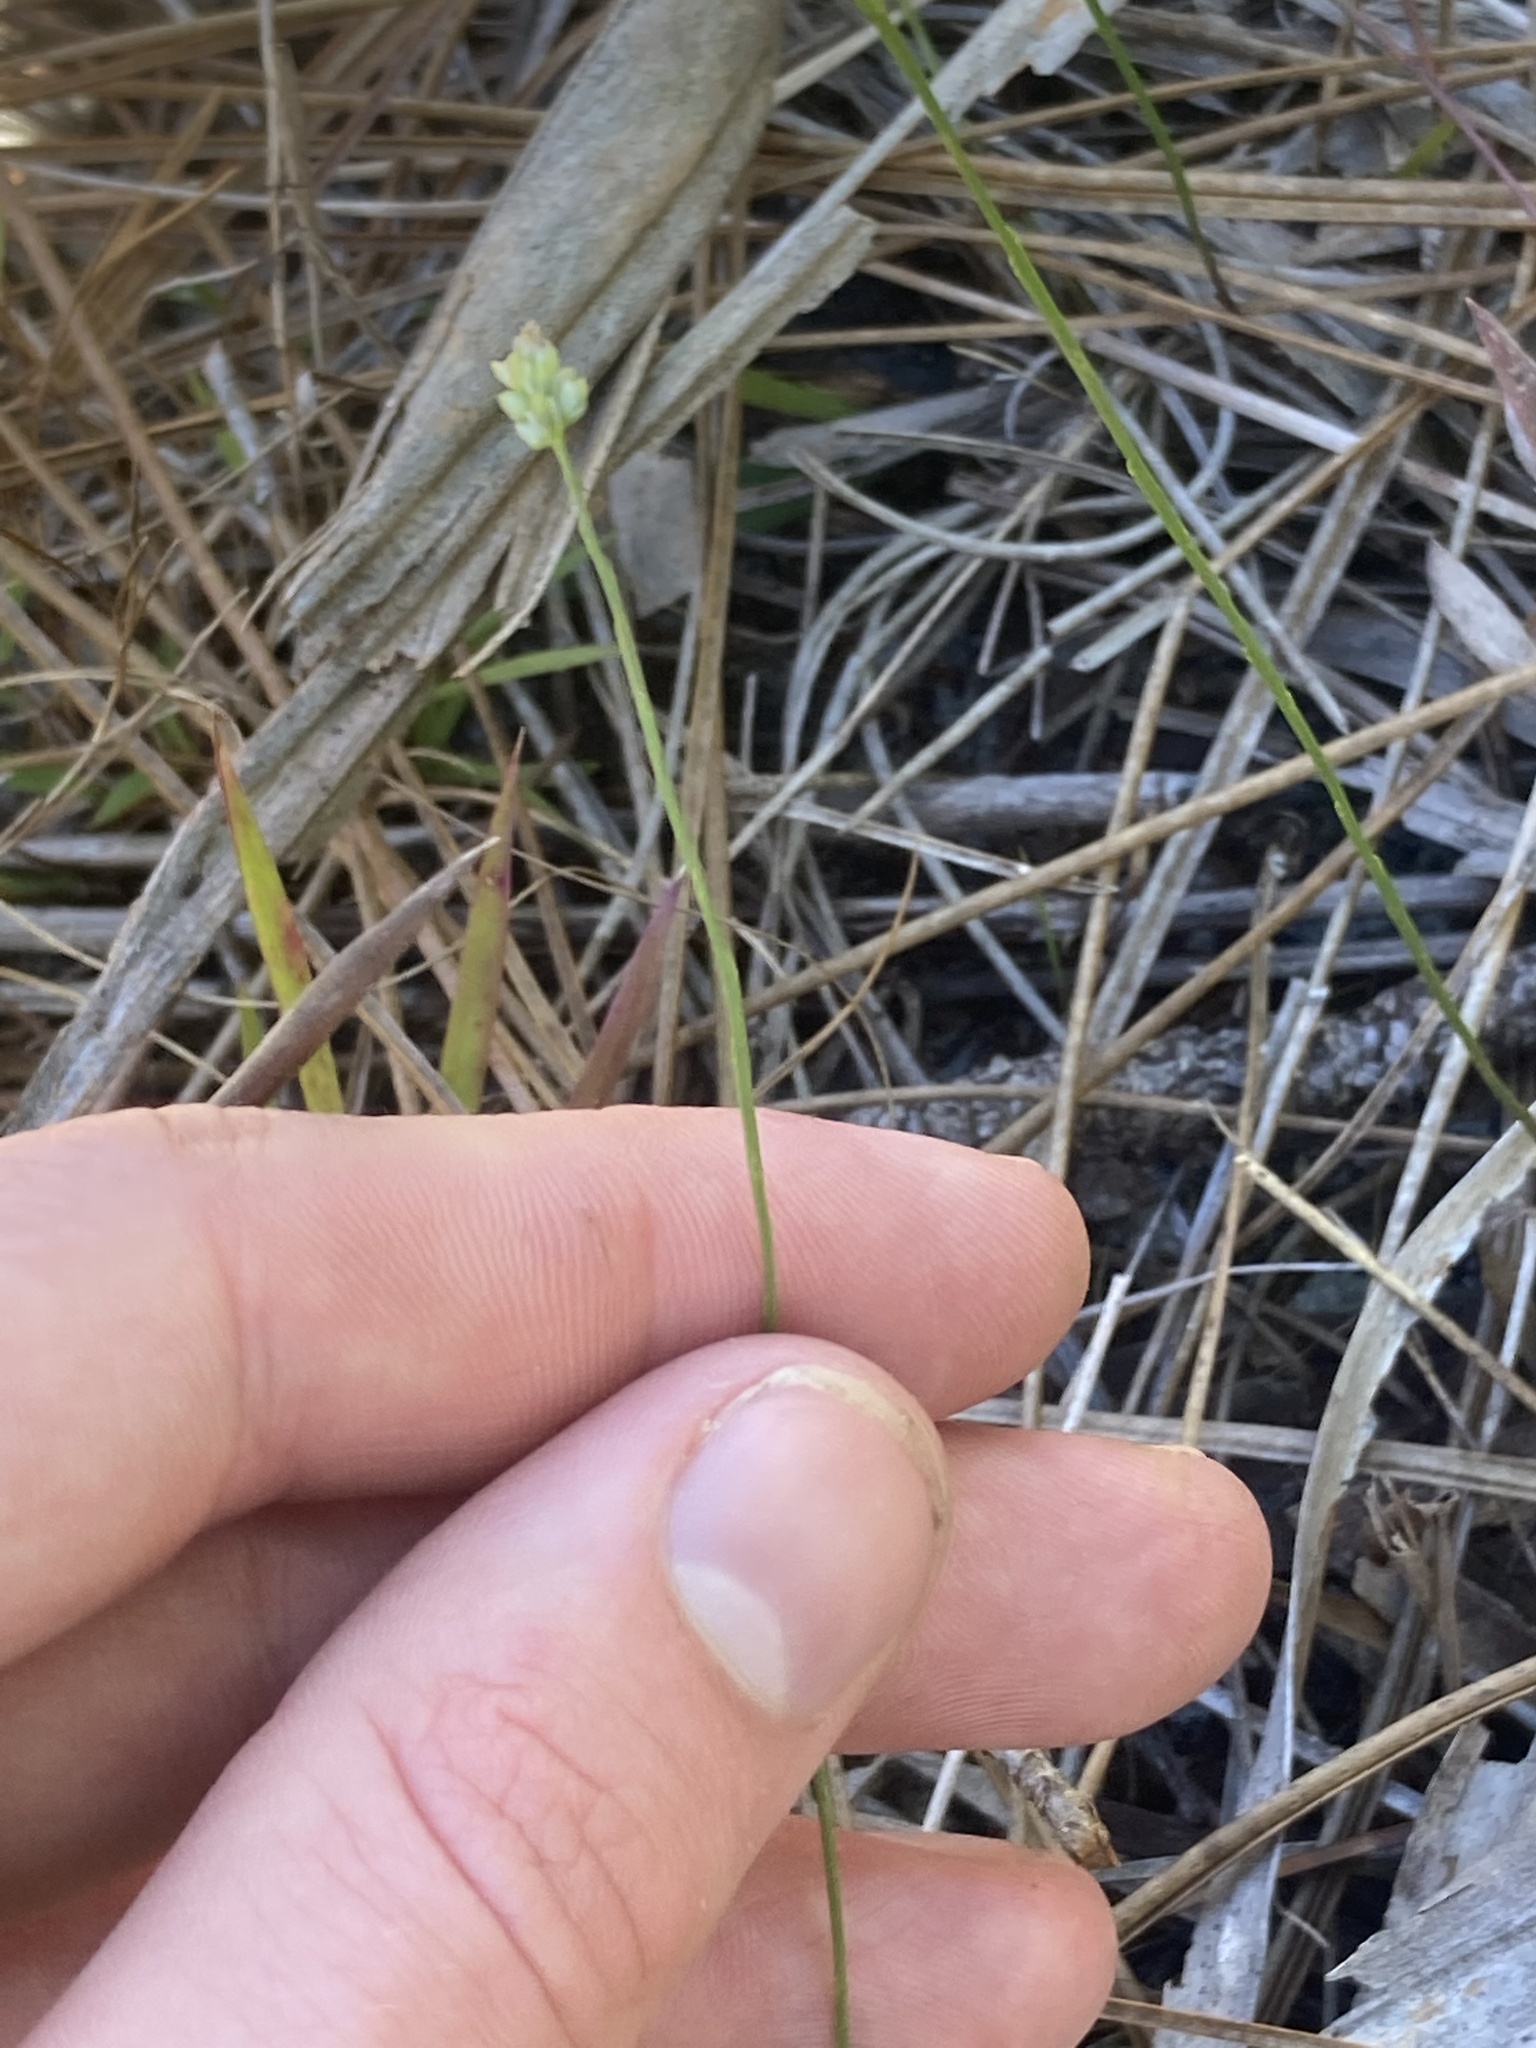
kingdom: Plantae
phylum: Tracheophyta
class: Magnoliopsida
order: Fabales
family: Polygalaceae
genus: Polygala
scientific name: Polygala setacea
